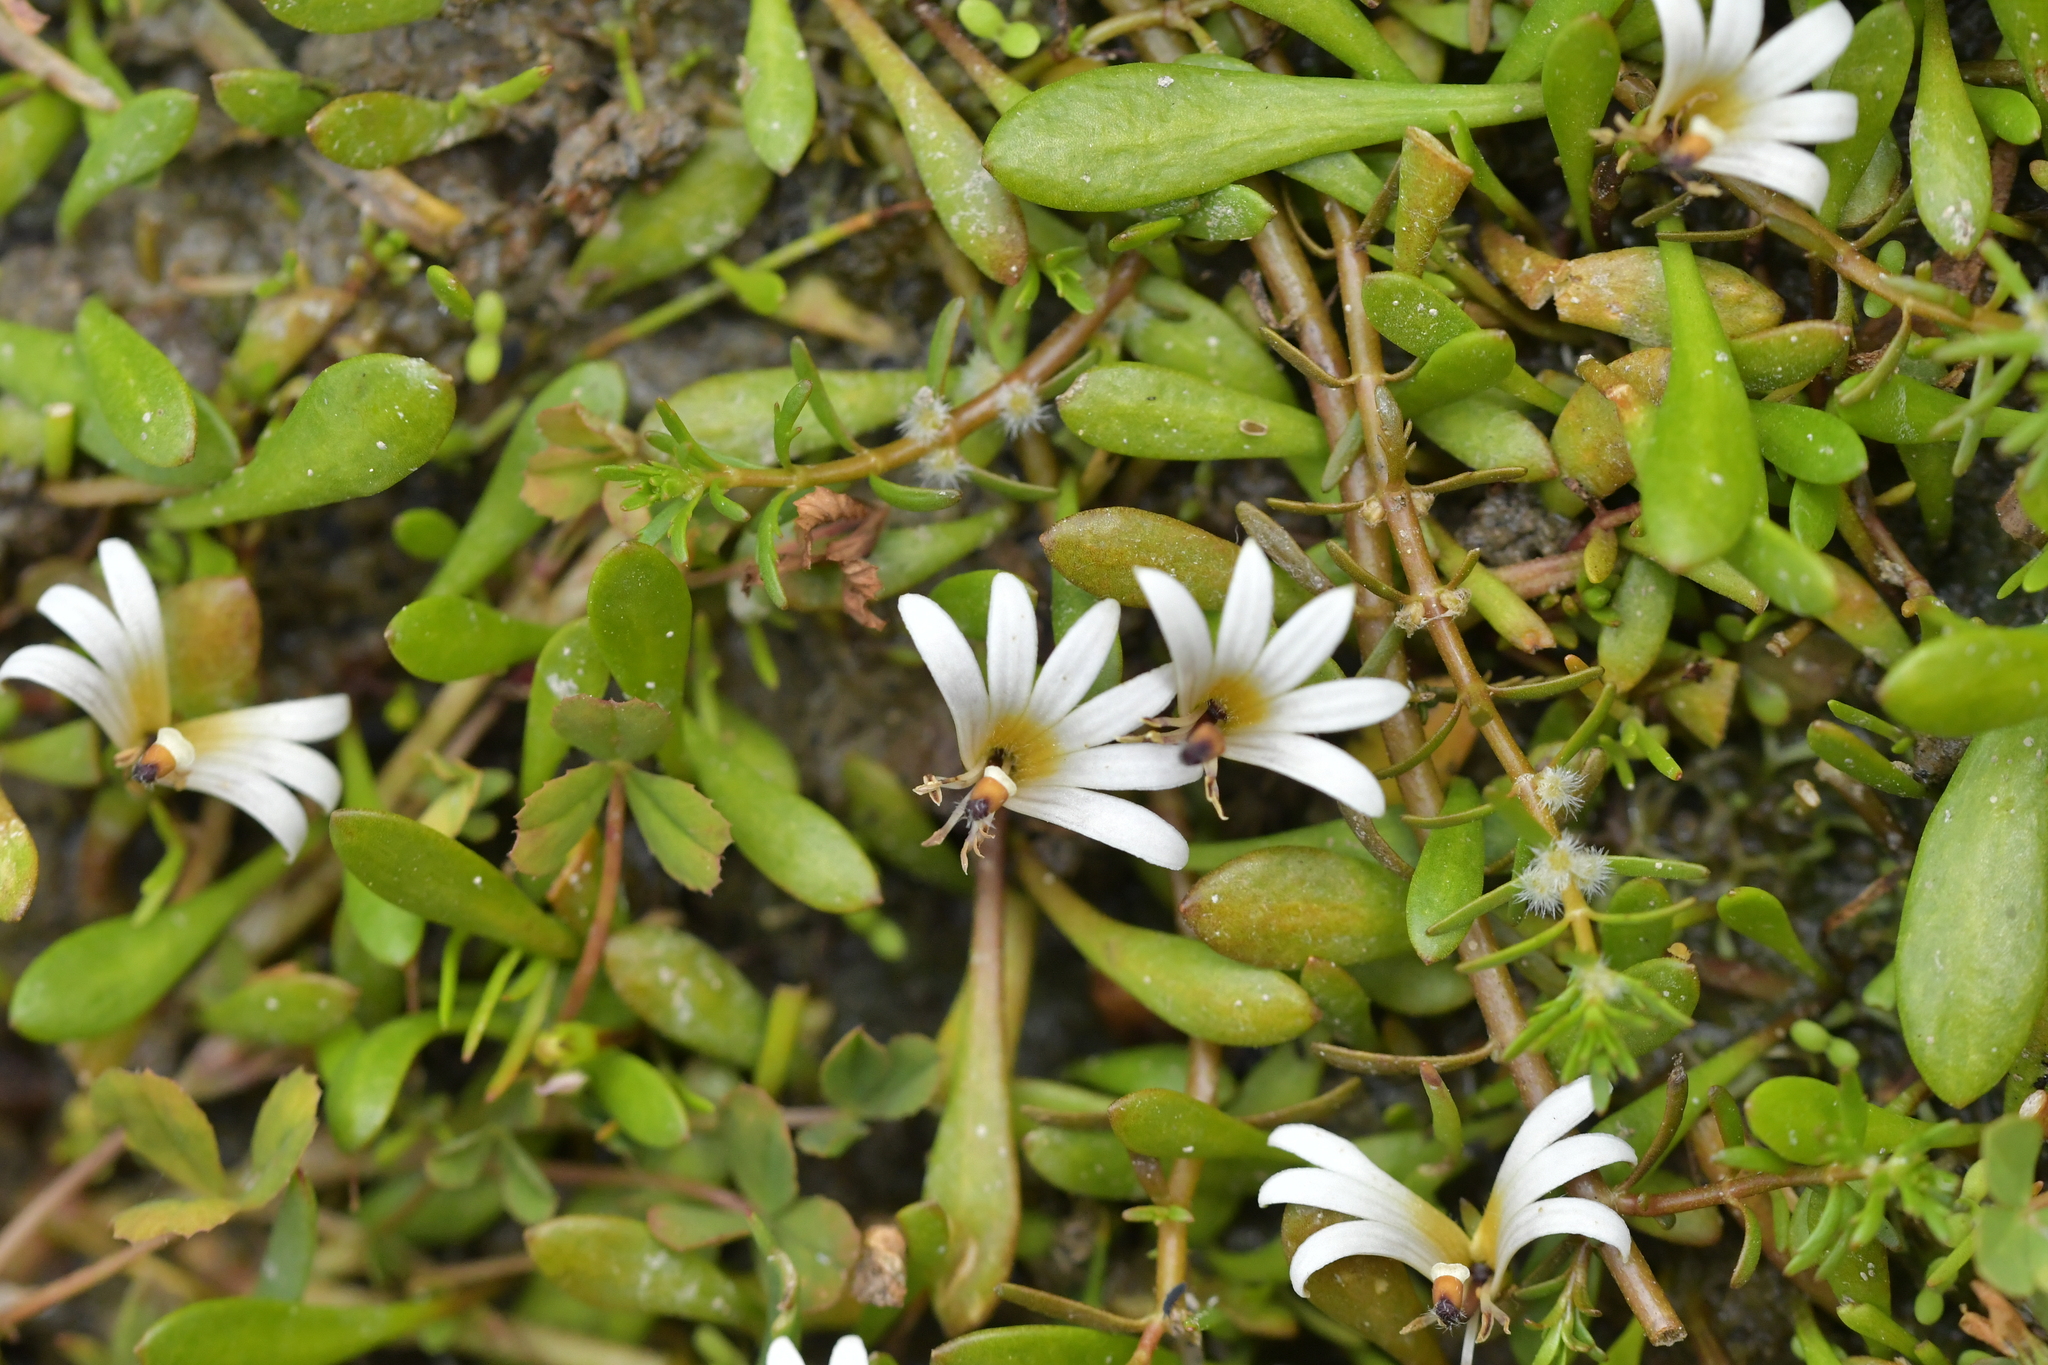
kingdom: Plantae
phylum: Tracheophyta
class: Magnoliopsida
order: Asterales
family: Goodeniaceae
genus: Goodenia
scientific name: Goodenia radicans
